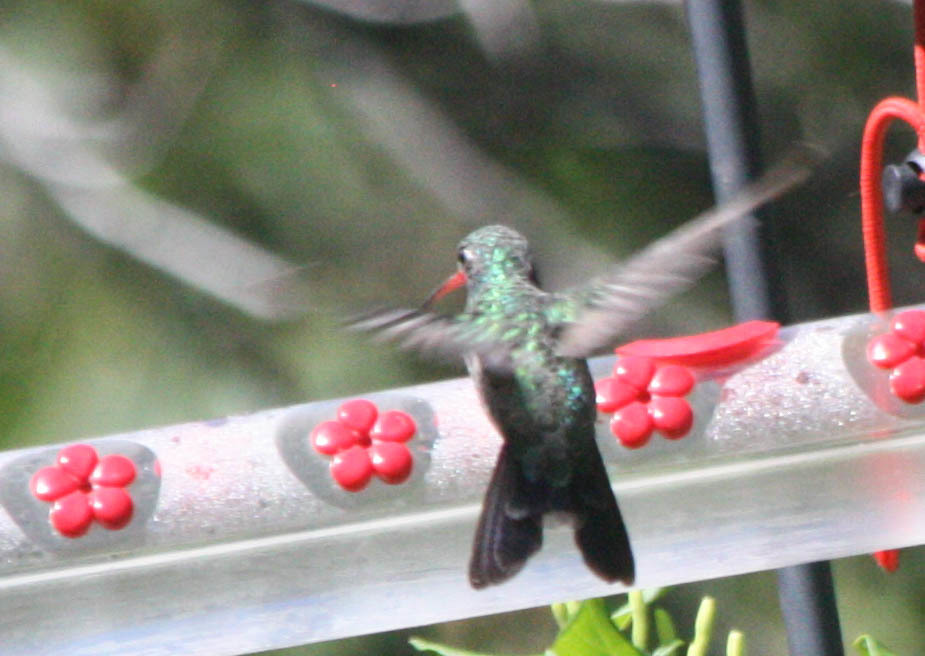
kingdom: Animalia
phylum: Chordata
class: Aves
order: Apodiformes
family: Trochilidae
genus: Cynanthus
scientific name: Cynanthus latirostris
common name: Broad-billed hummingbird
